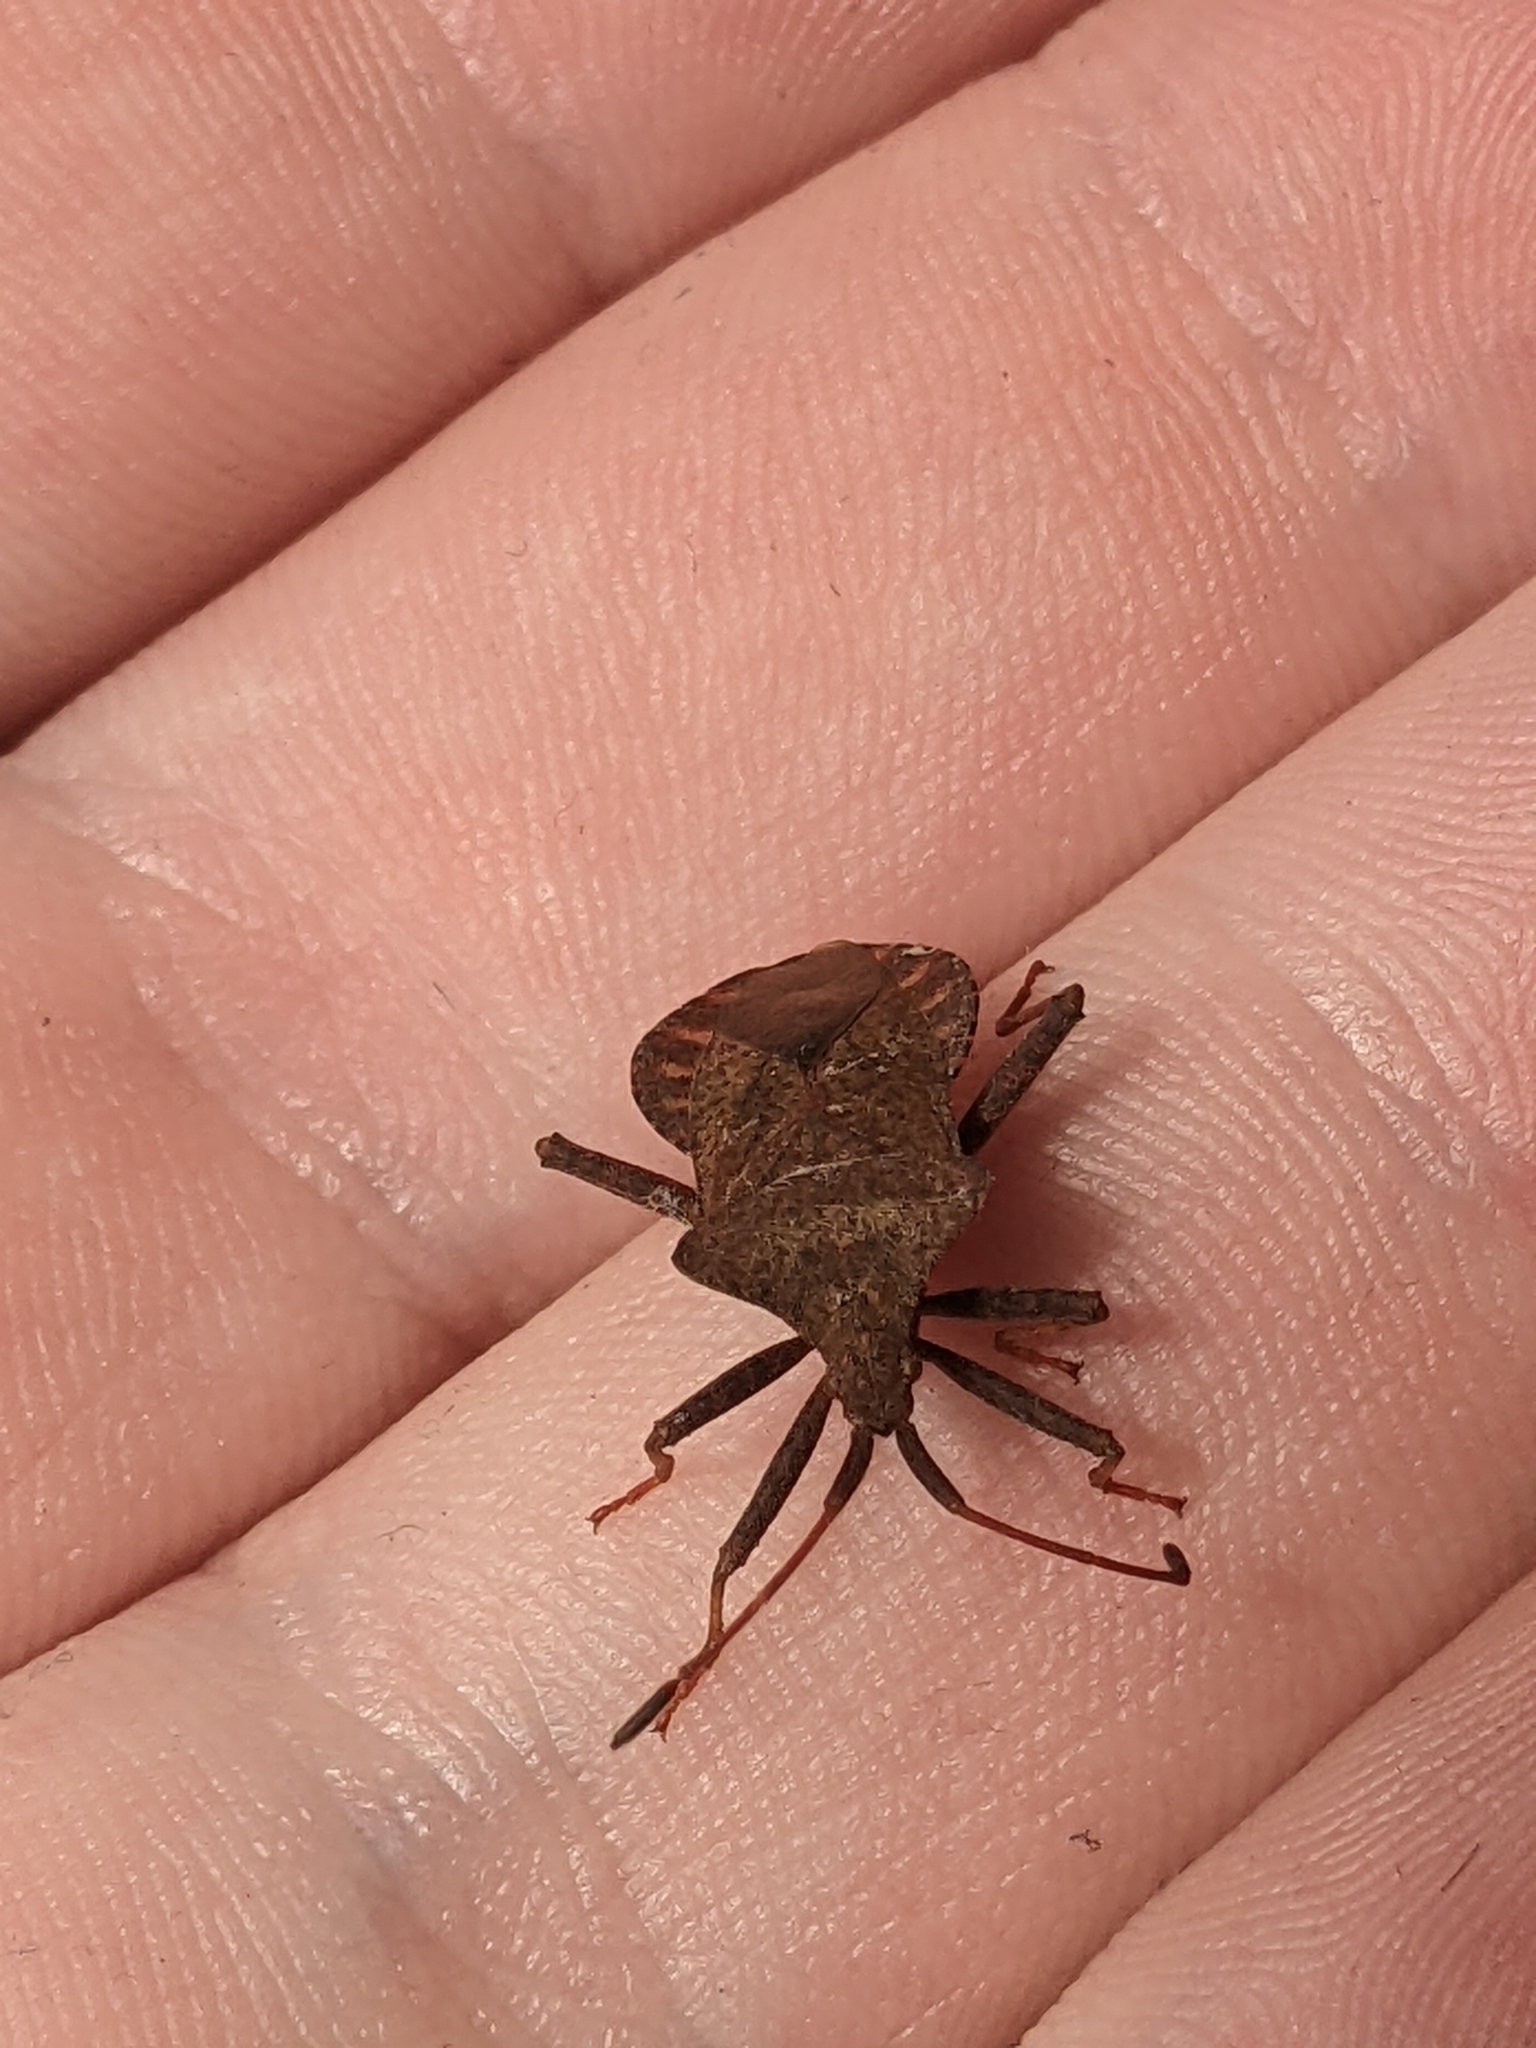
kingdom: Animalia
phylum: Arthropoda
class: Insecta
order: Hemiptera
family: Coreidae
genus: Coreus
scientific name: Coreus marginatus
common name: Dock bug
